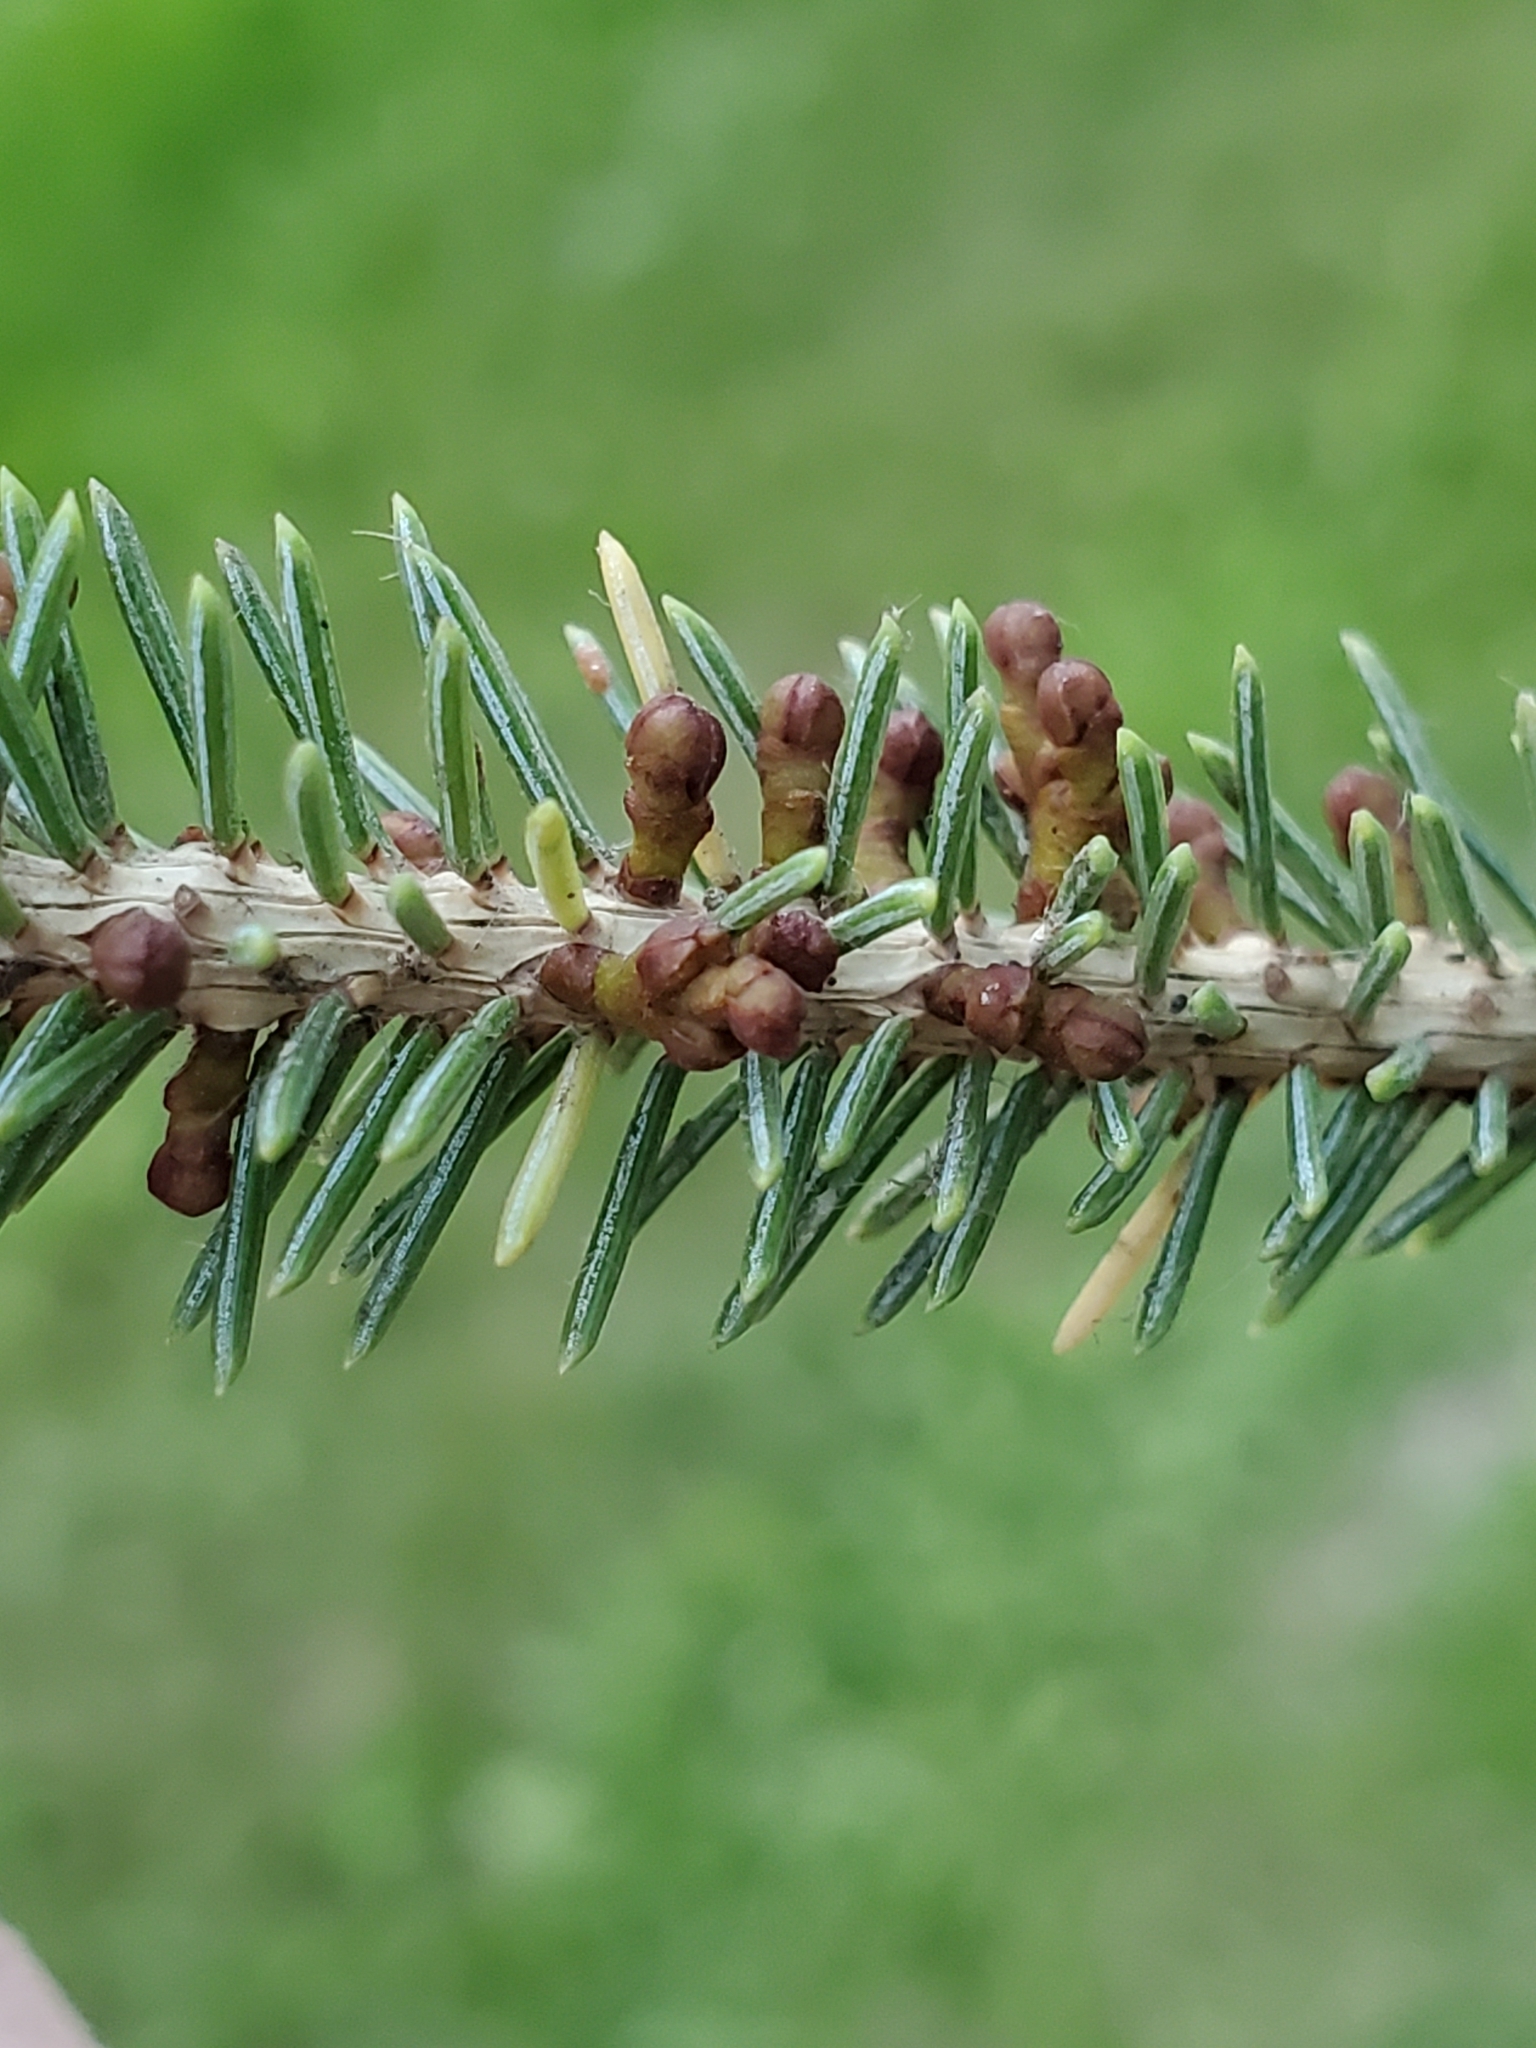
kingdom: Plantae
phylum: Tracheophyta
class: Magnoliopsida
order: Santalales
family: Viscaceae
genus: Arceuthobium
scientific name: Arceuthobium pusillum
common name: Dwarf-mistletoe
